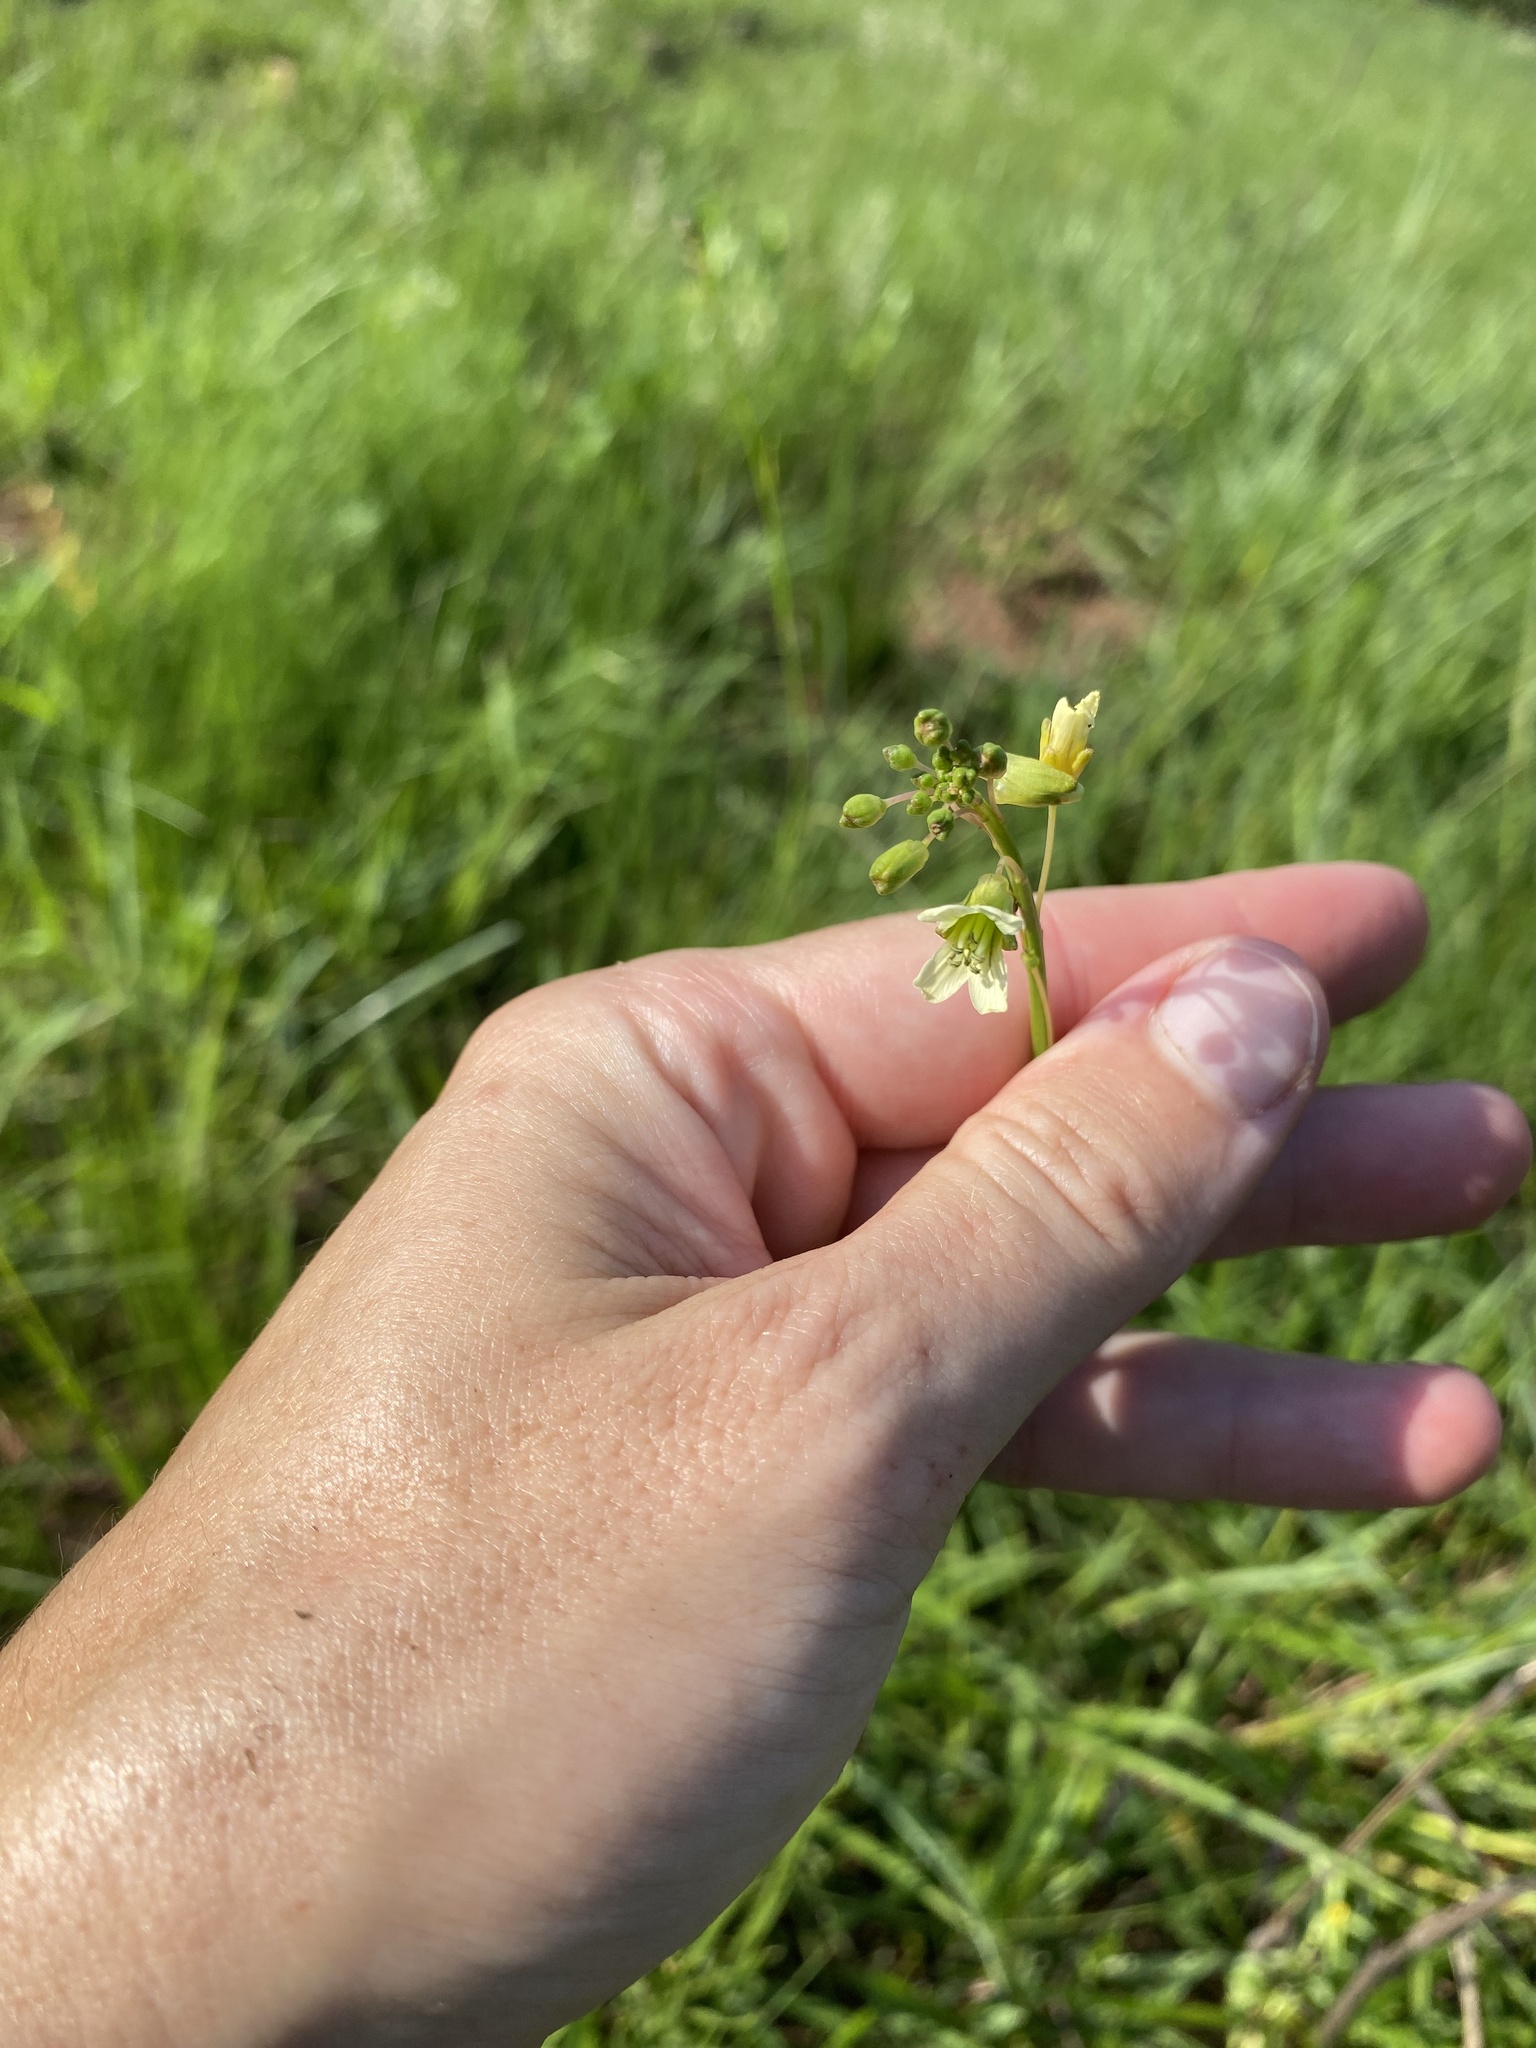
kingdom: Plantae
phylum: Tracheophyta
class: Magnoliopsida
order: Brassicales
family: Brassicaceae
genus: Heliophila
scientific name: Heliophila elongata
